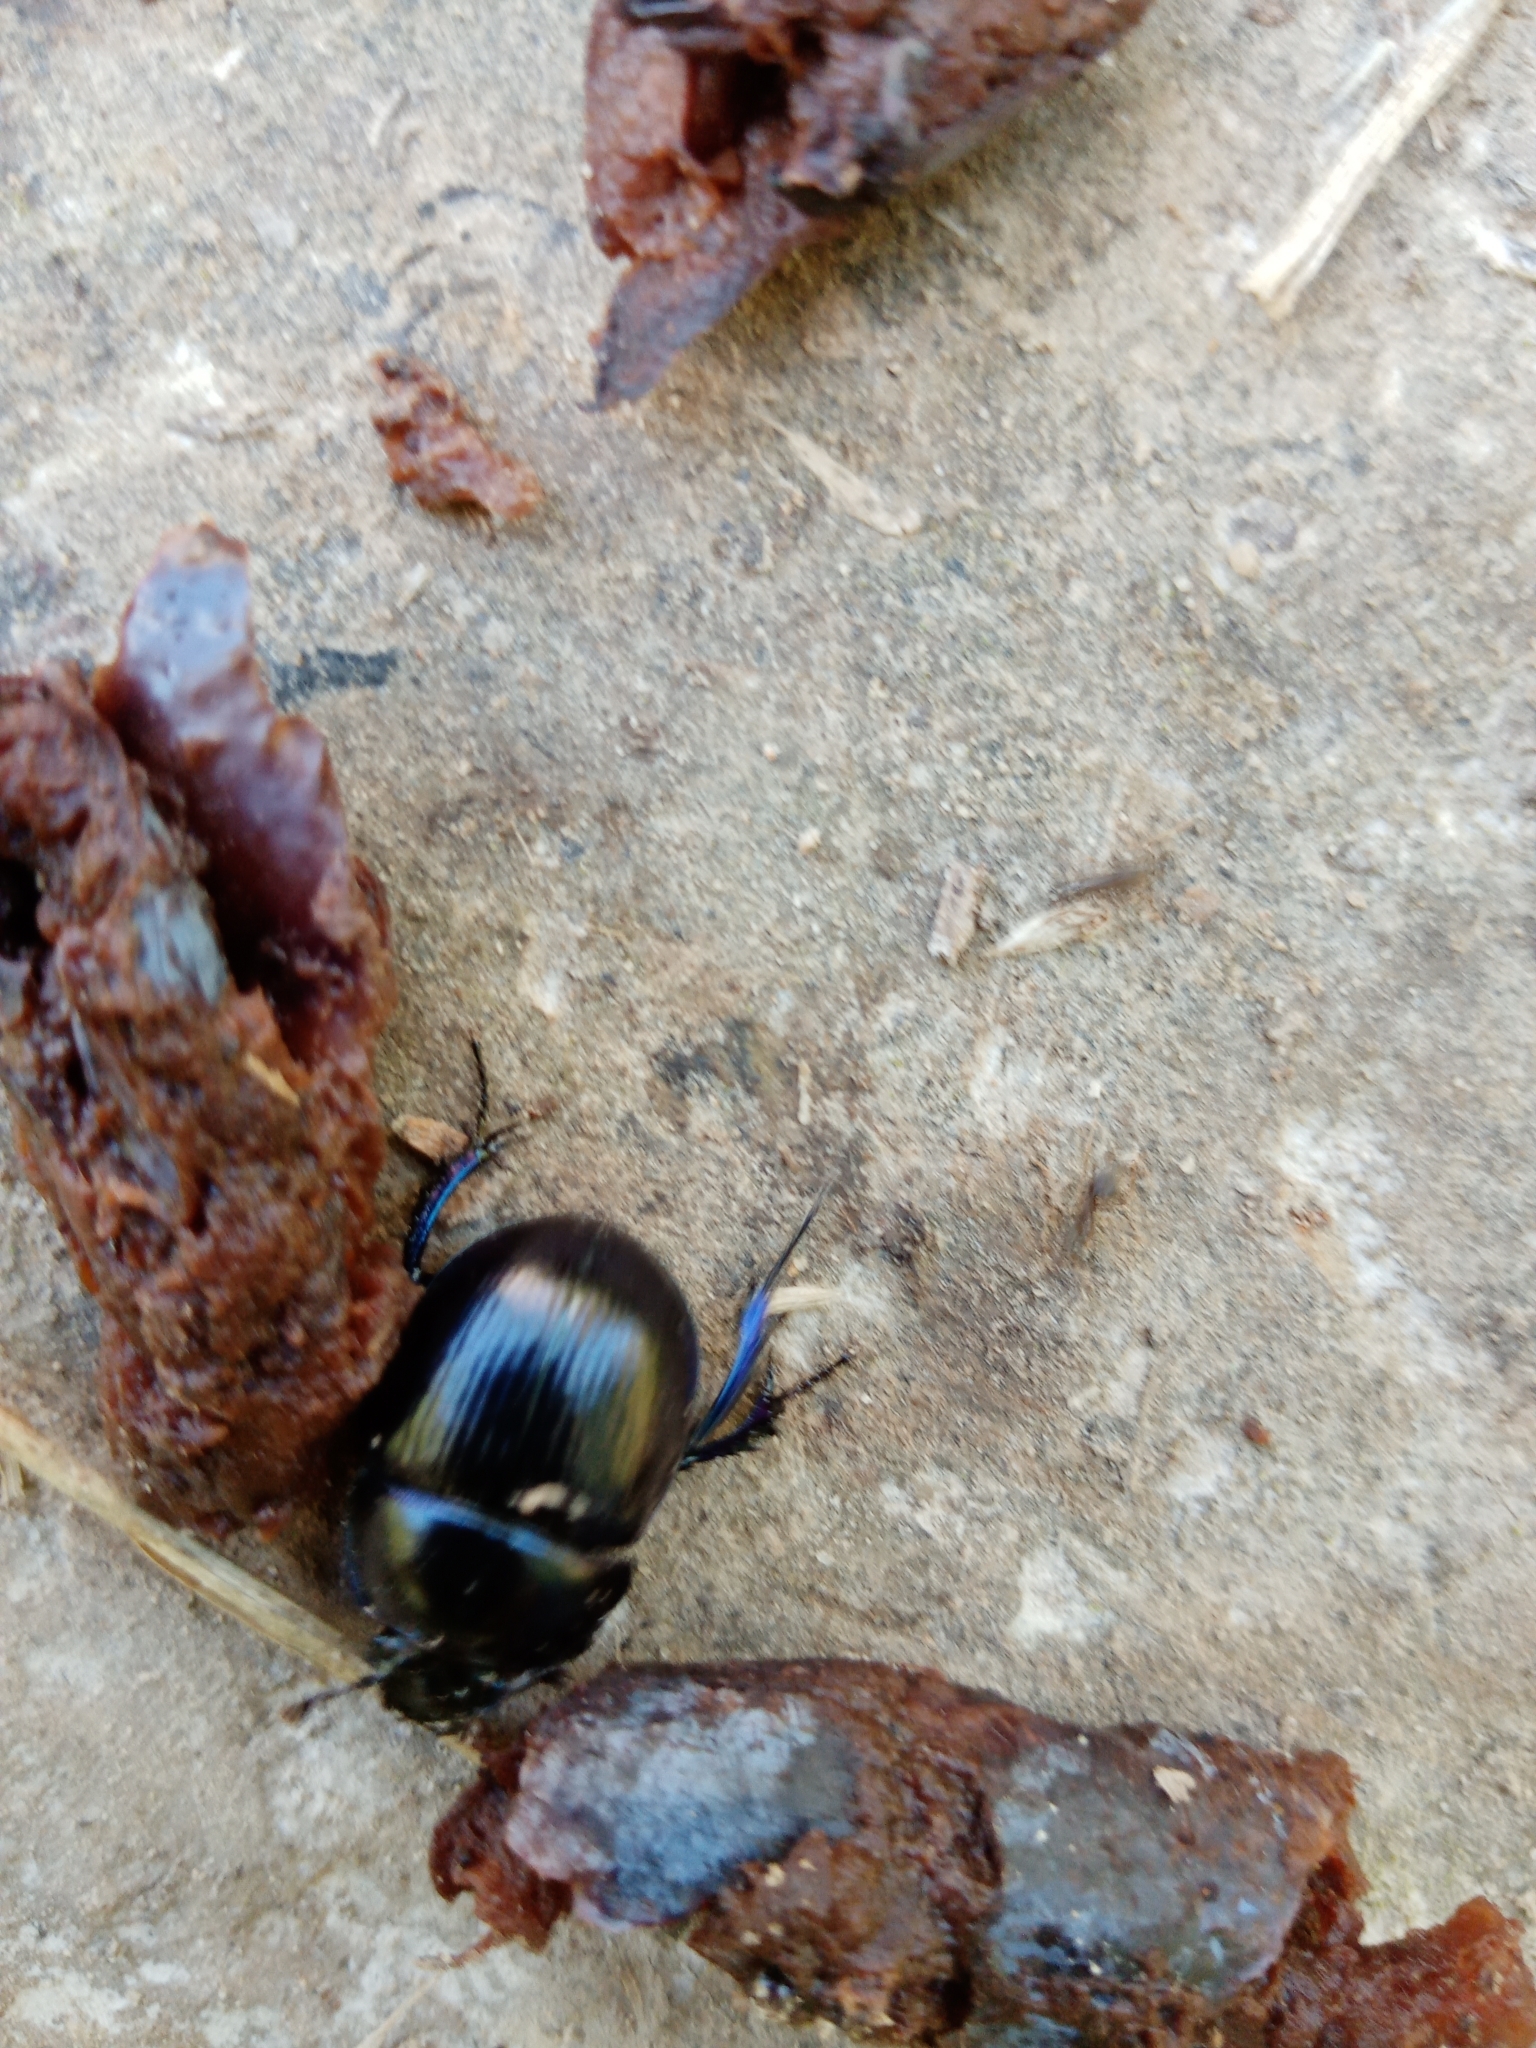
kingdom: Animalia
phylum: Arthropoda
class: Insecta
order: Coleoptera
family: Geotrupidae
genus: Anoplotrupes
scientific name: Anoplotrupes stercorosus
